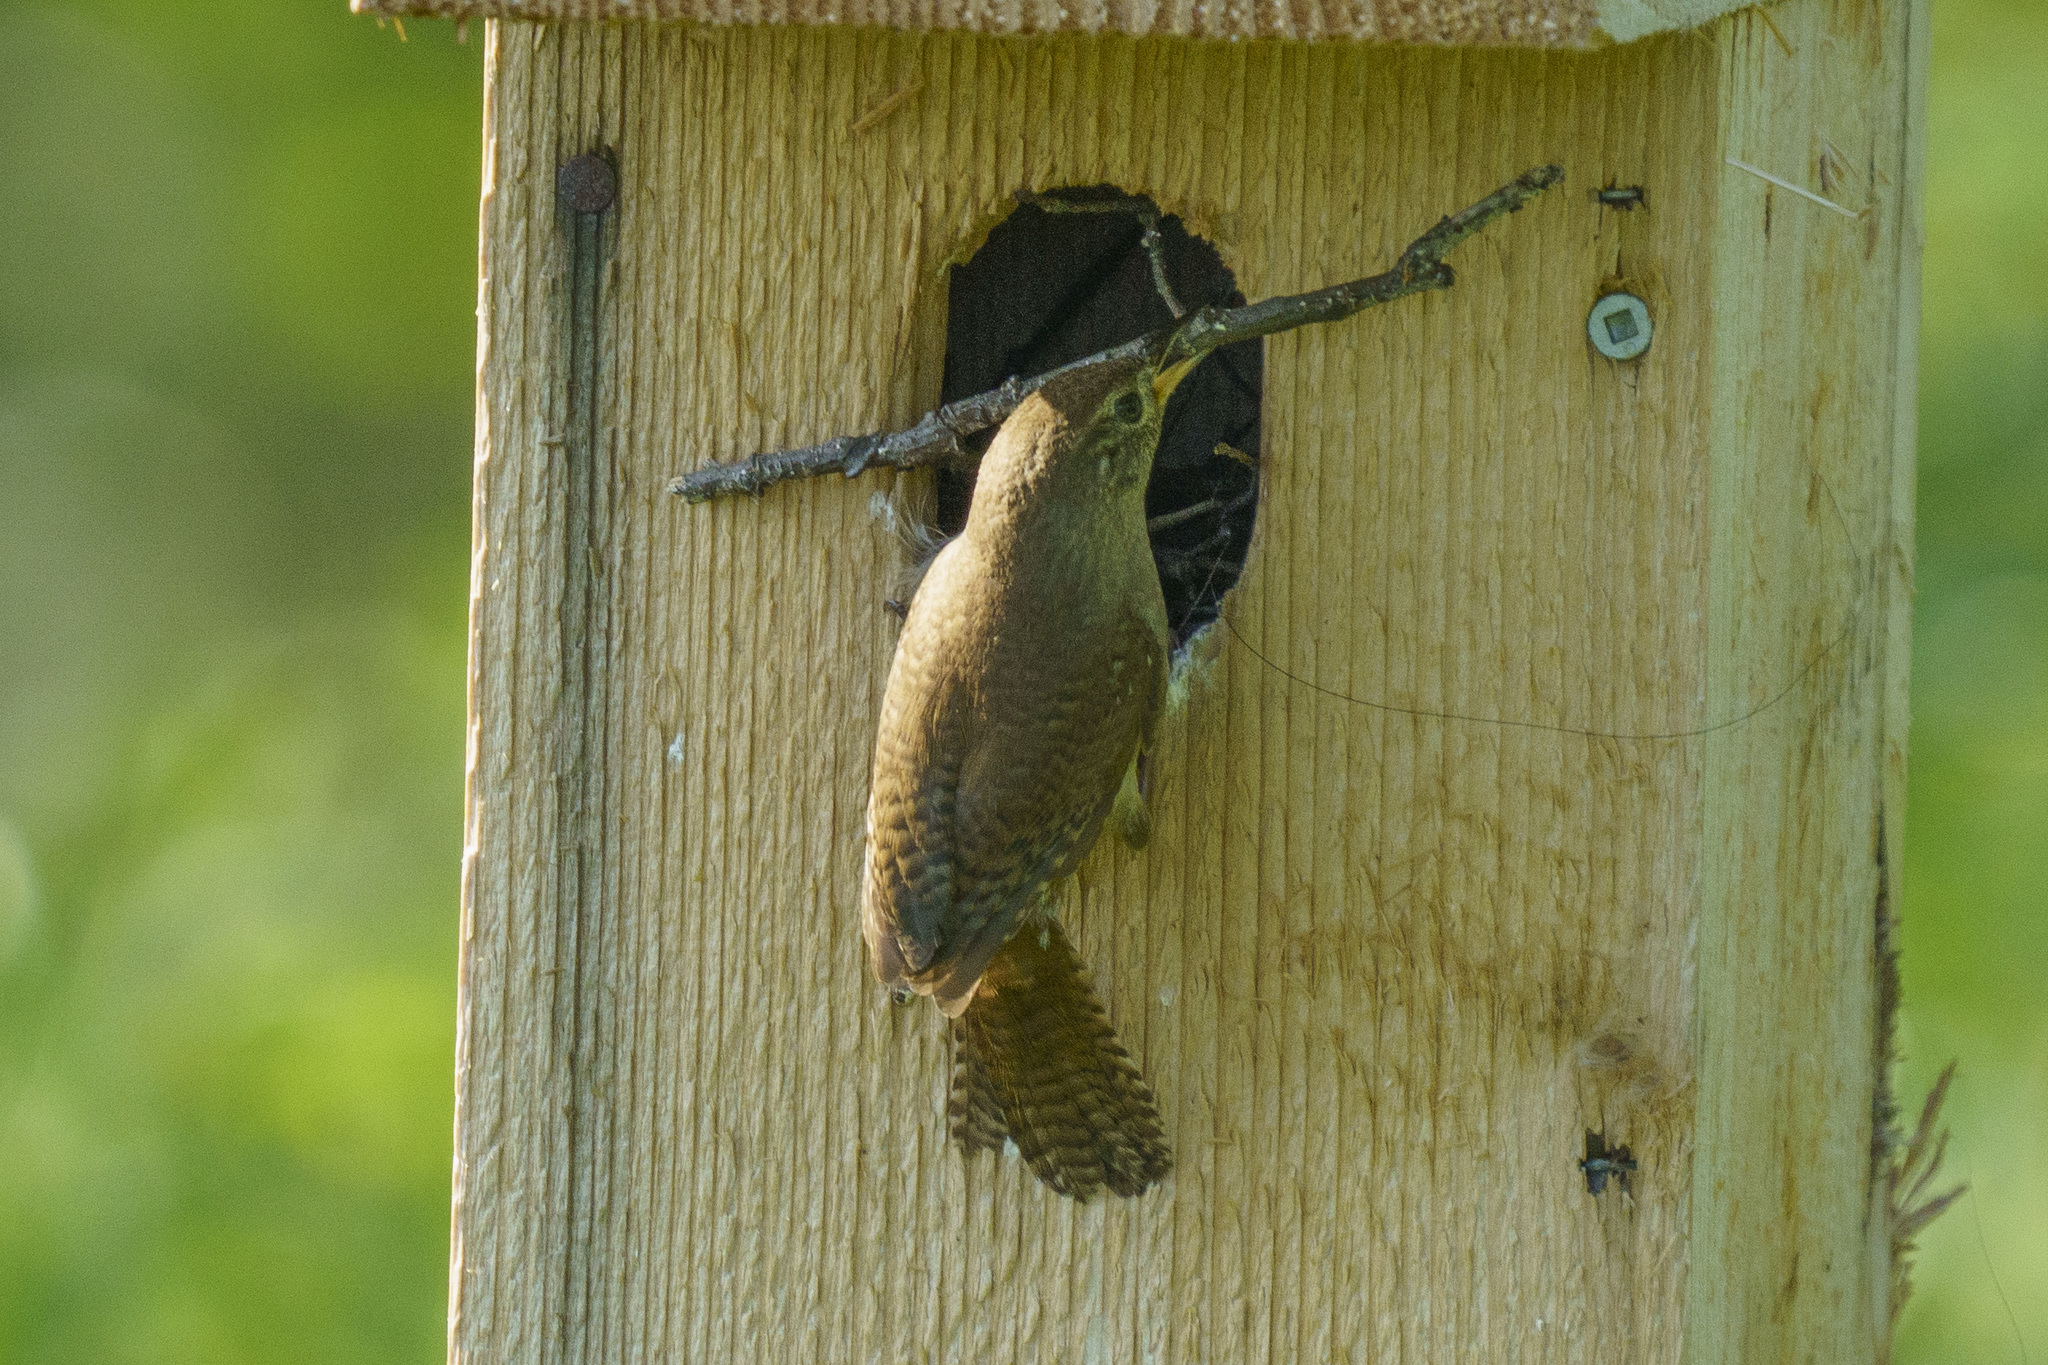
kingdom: Animalia
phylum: Chordata
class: Aves
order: Passeriformes
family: Troglodytidae
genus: Troglodytes
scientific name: Troglodytes aedon
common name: House wren
